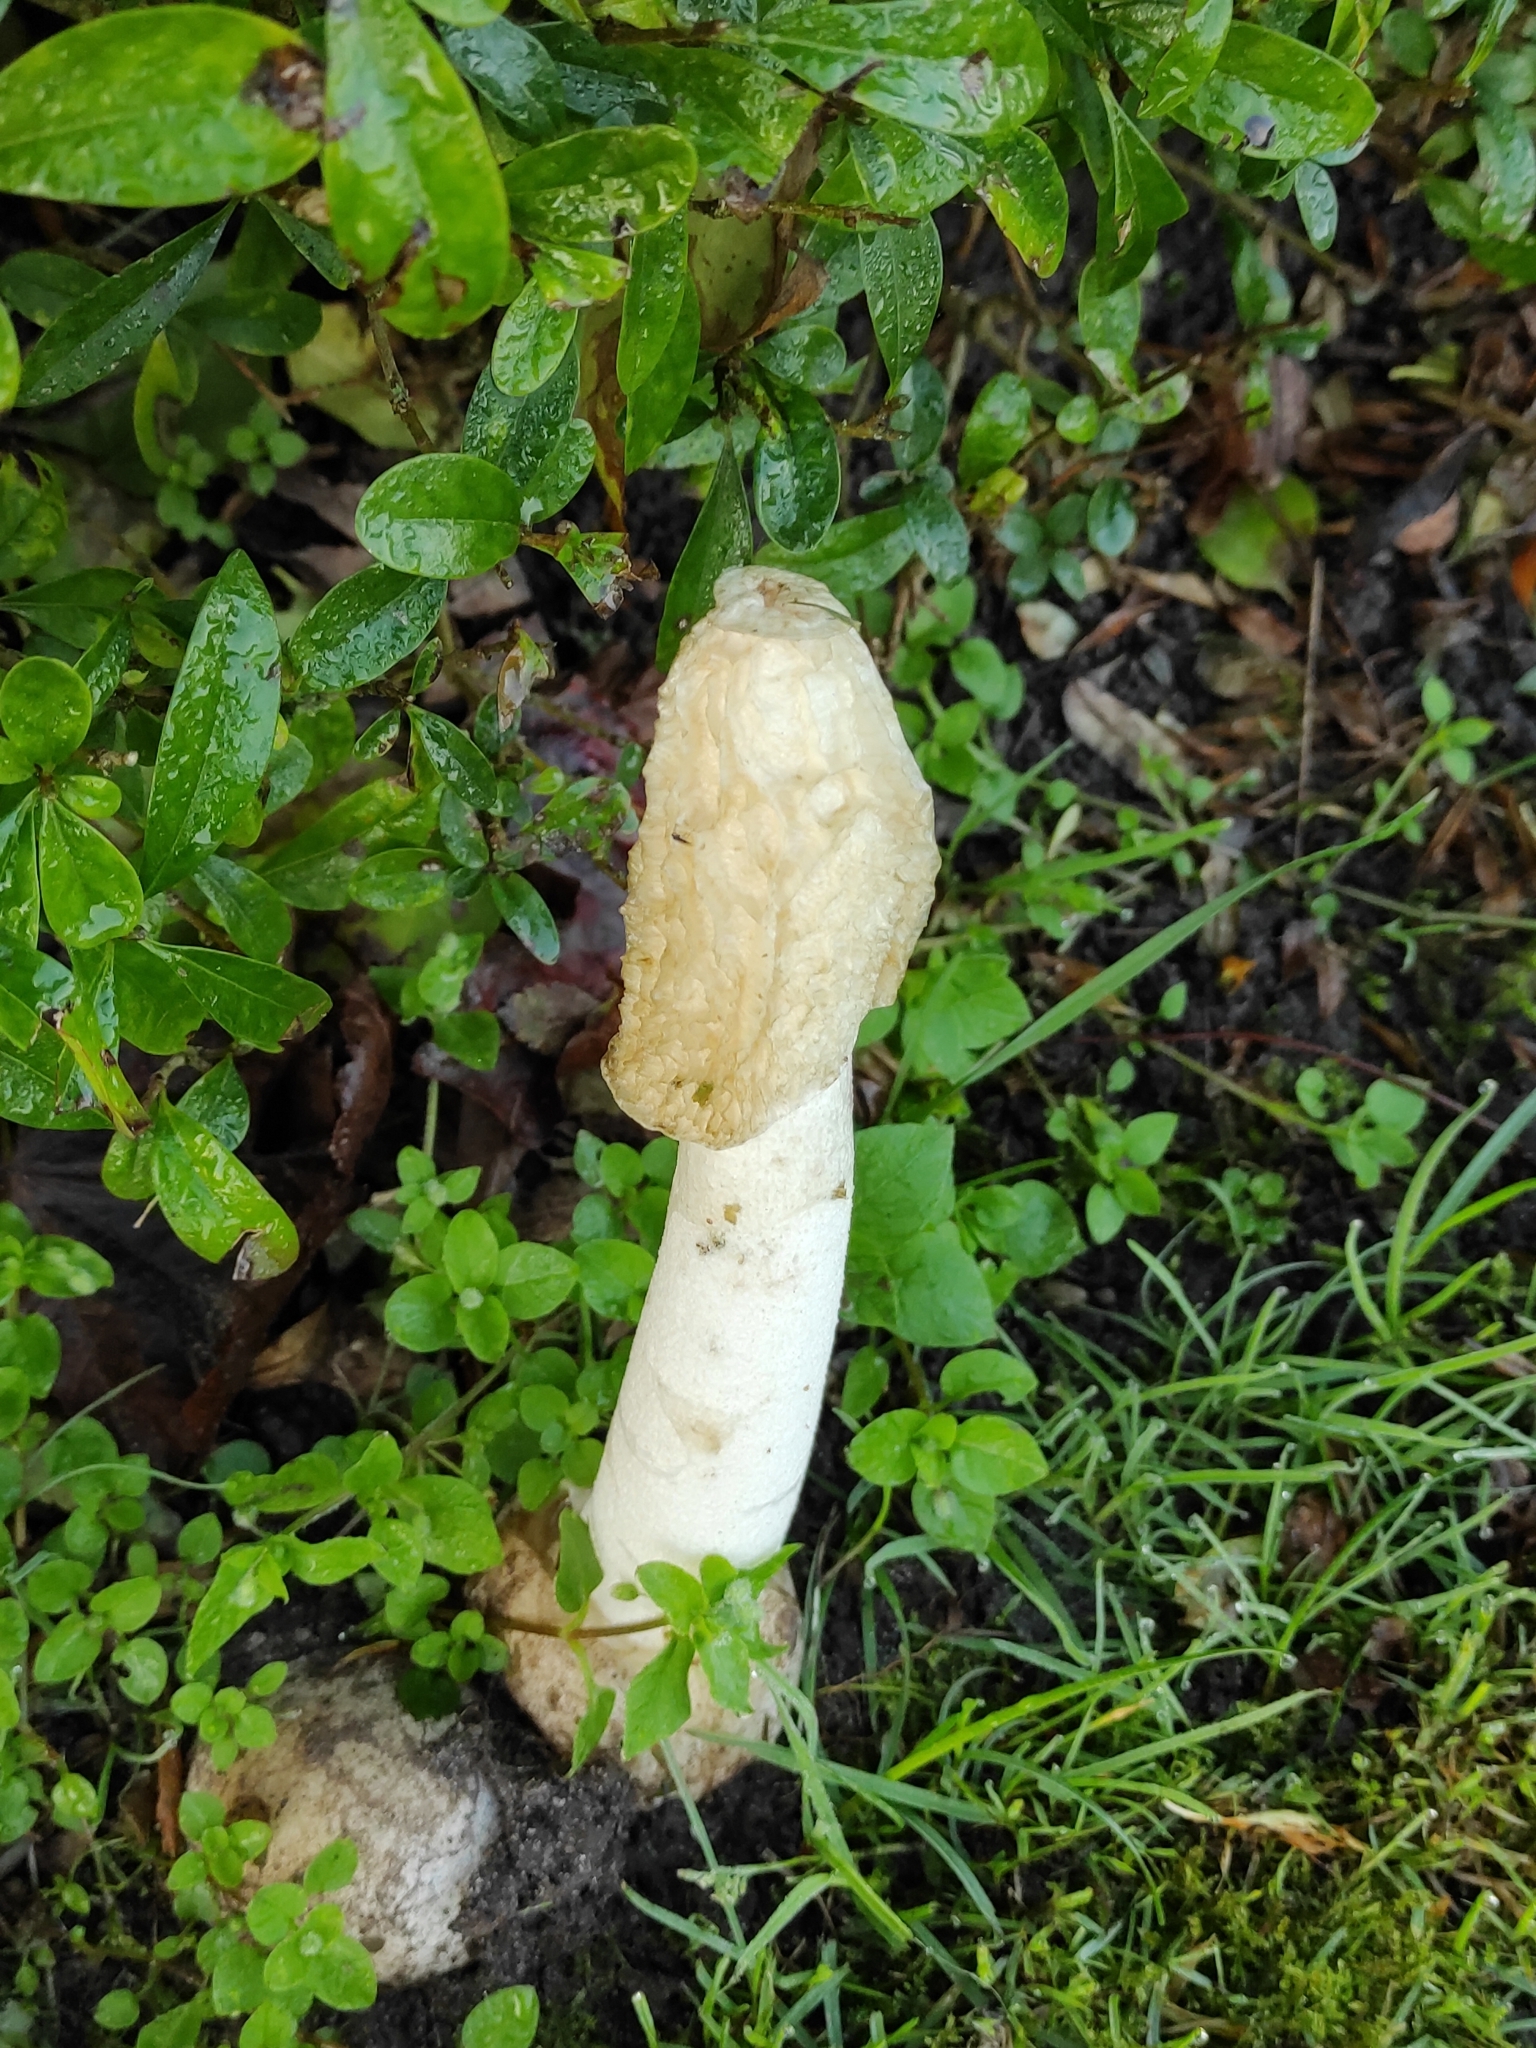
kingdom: Fungi
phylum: Basidiomycota
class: Agaricomycetes
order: Phallales
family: Phallaceae
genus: Phallus
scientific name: Phallus impudicus
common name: Common stinkhorn
